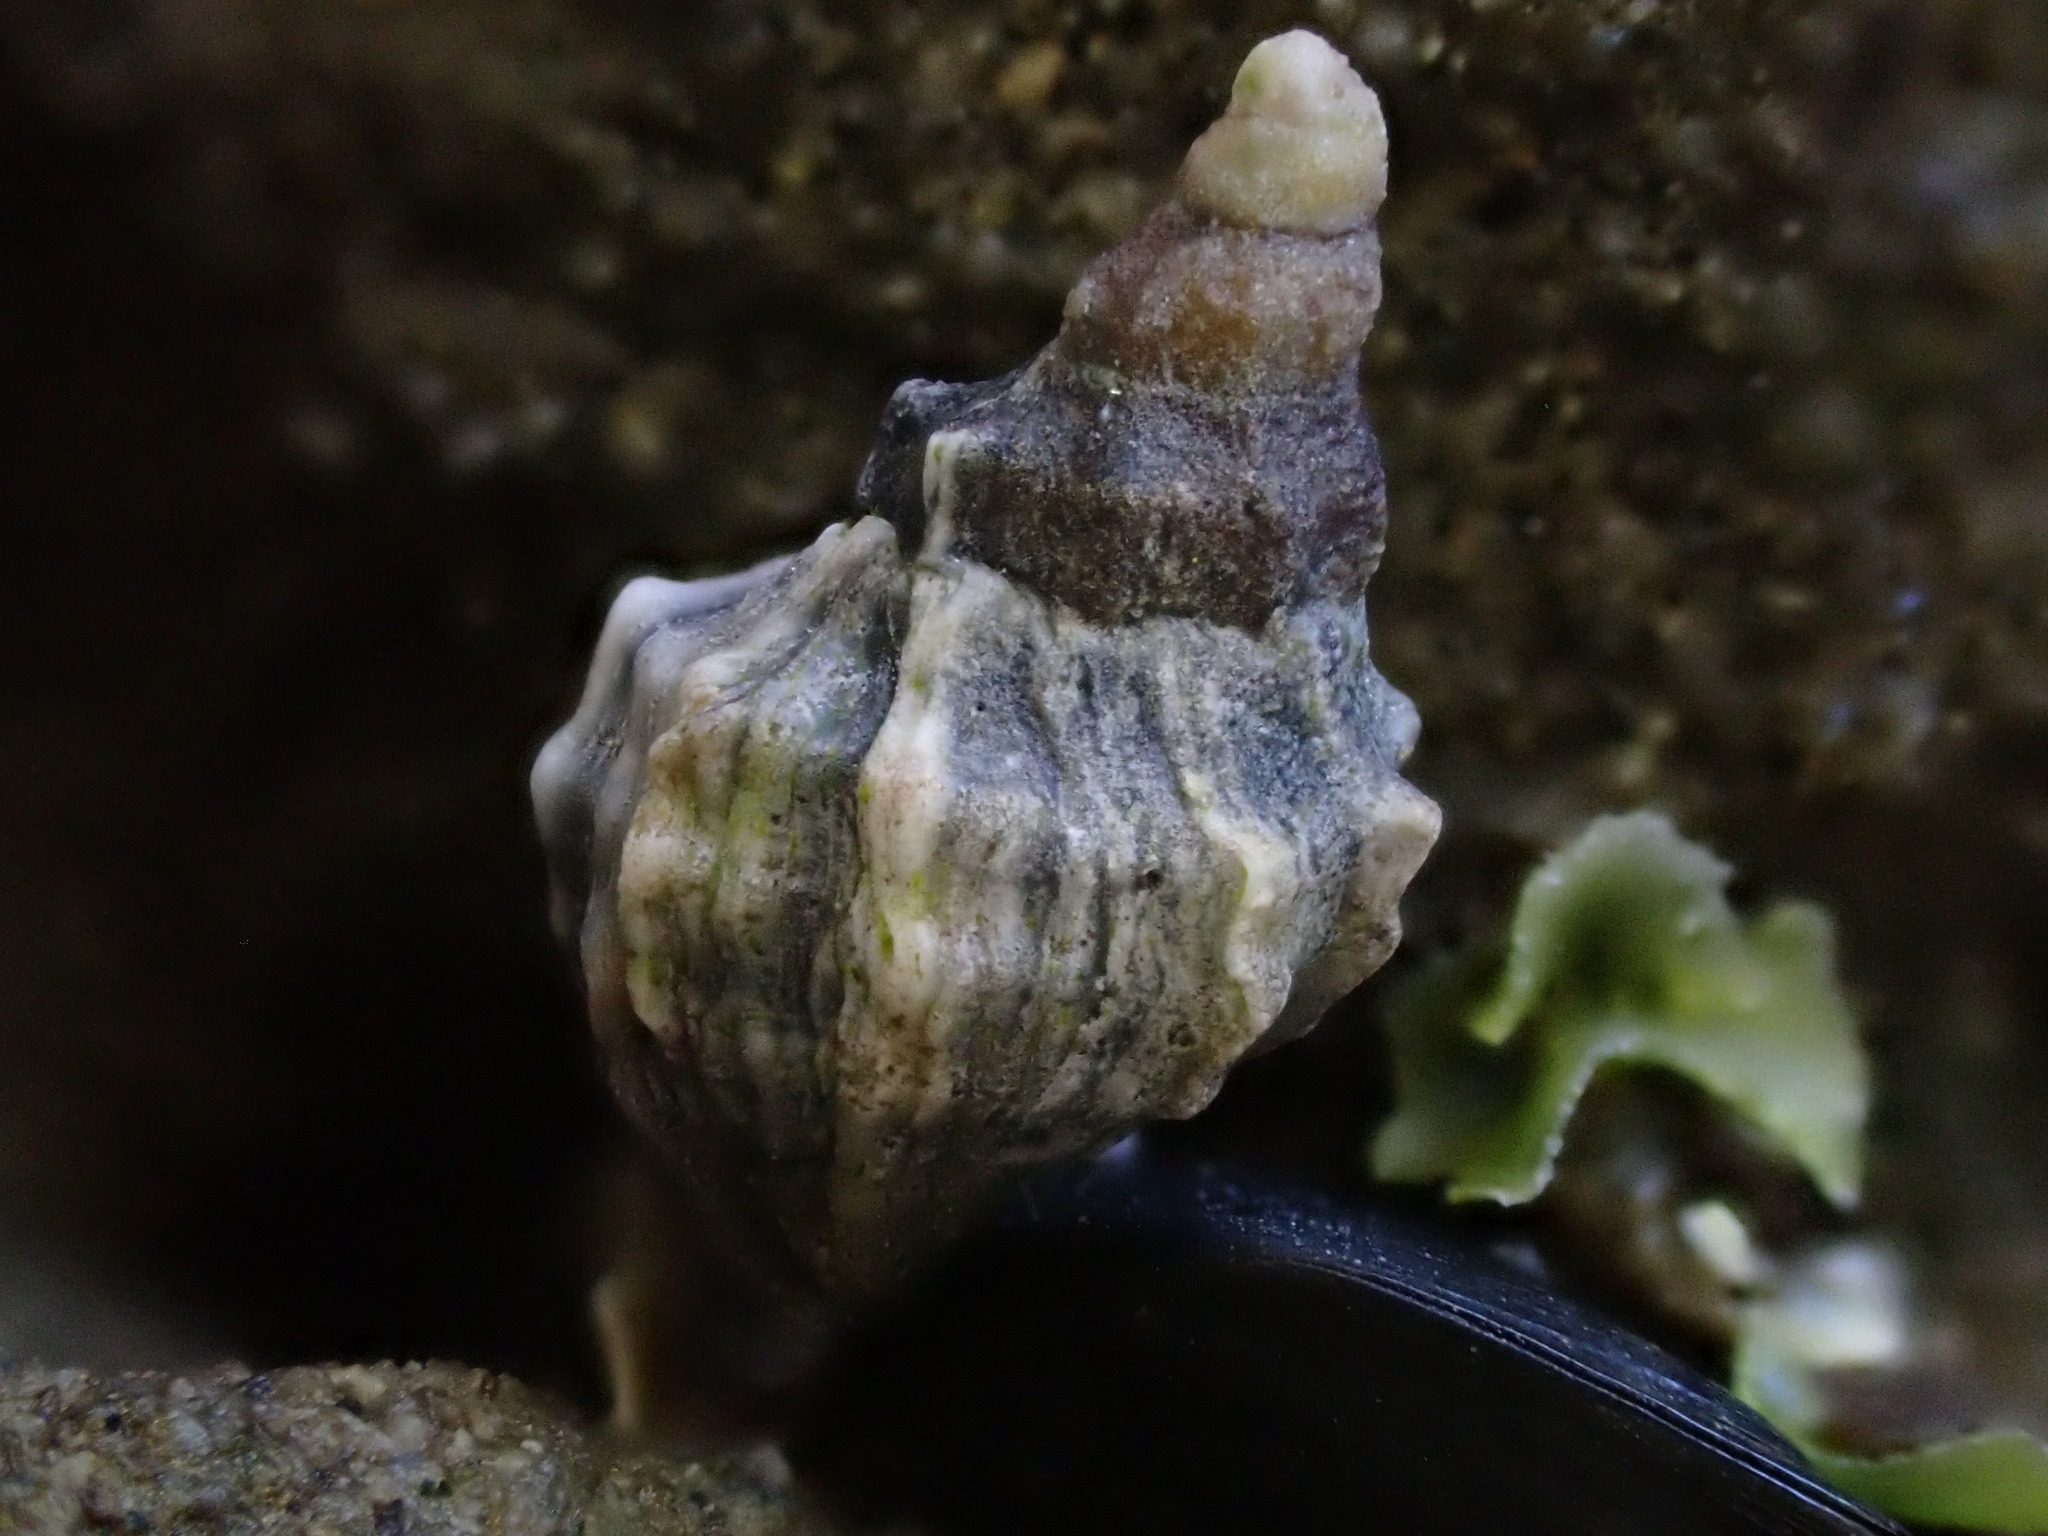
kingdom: Animalia
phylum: Mollusca
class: Gastropoda
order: Neogastropoda
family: Muricidae
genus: Haustrum
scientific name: Haustrum albomarginatum
